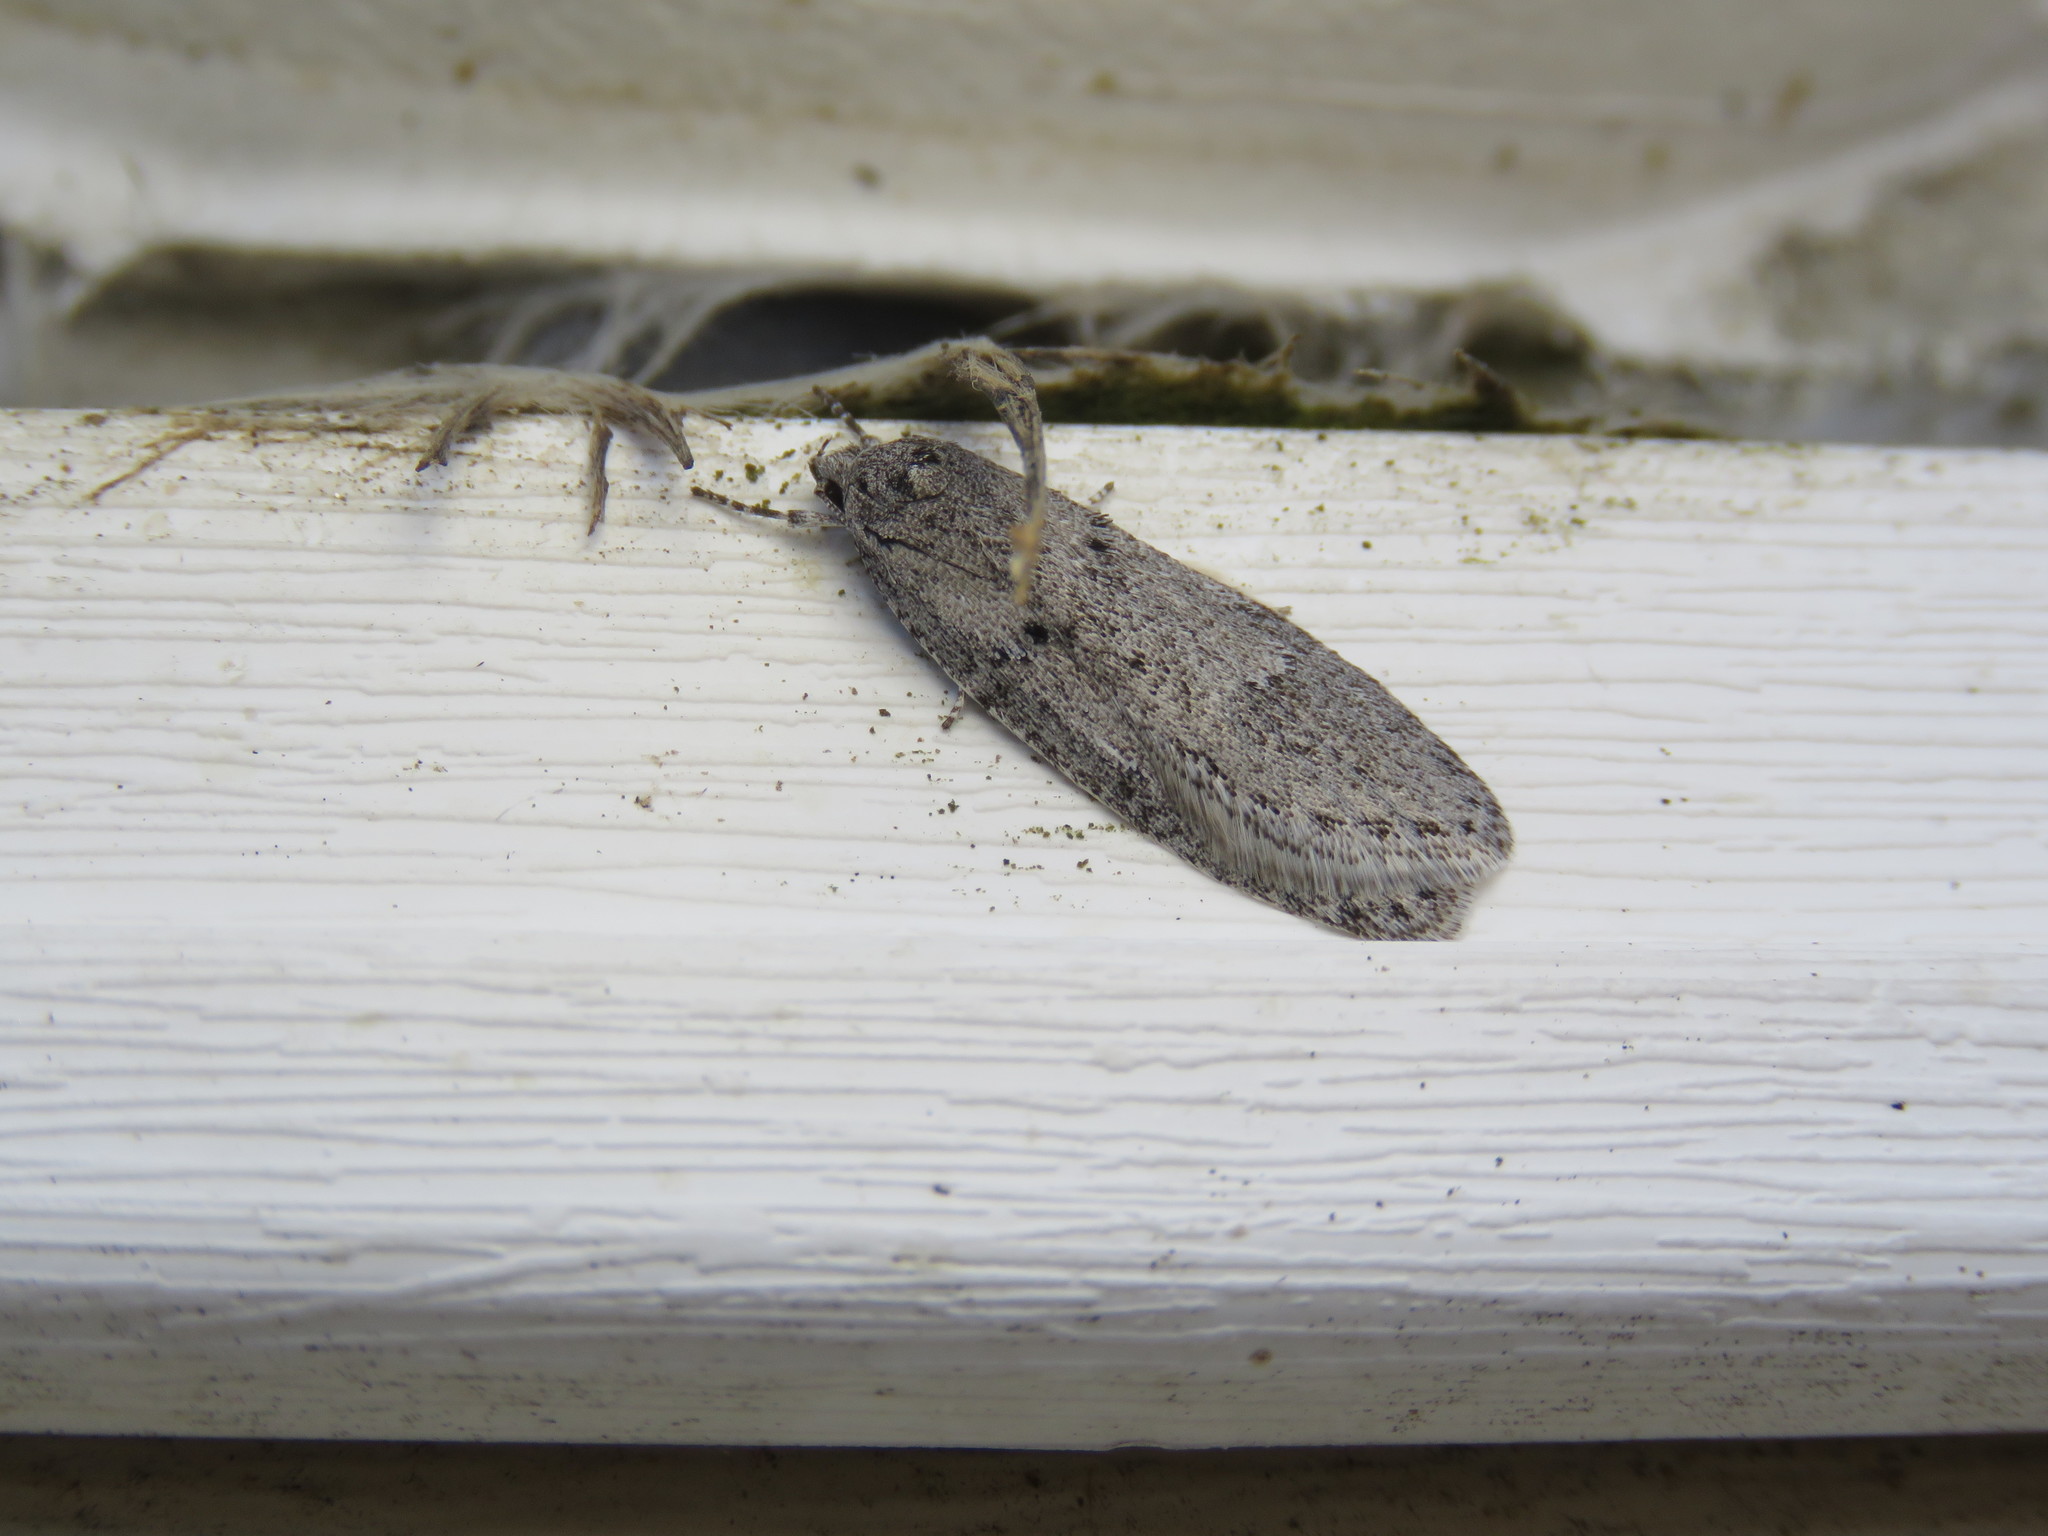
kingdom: Animalia
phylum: Arthropoda
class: Insecta
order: Lepidoptera
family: Depressariidae
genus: Semioscopis
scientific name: Semioscopis megamicrella
